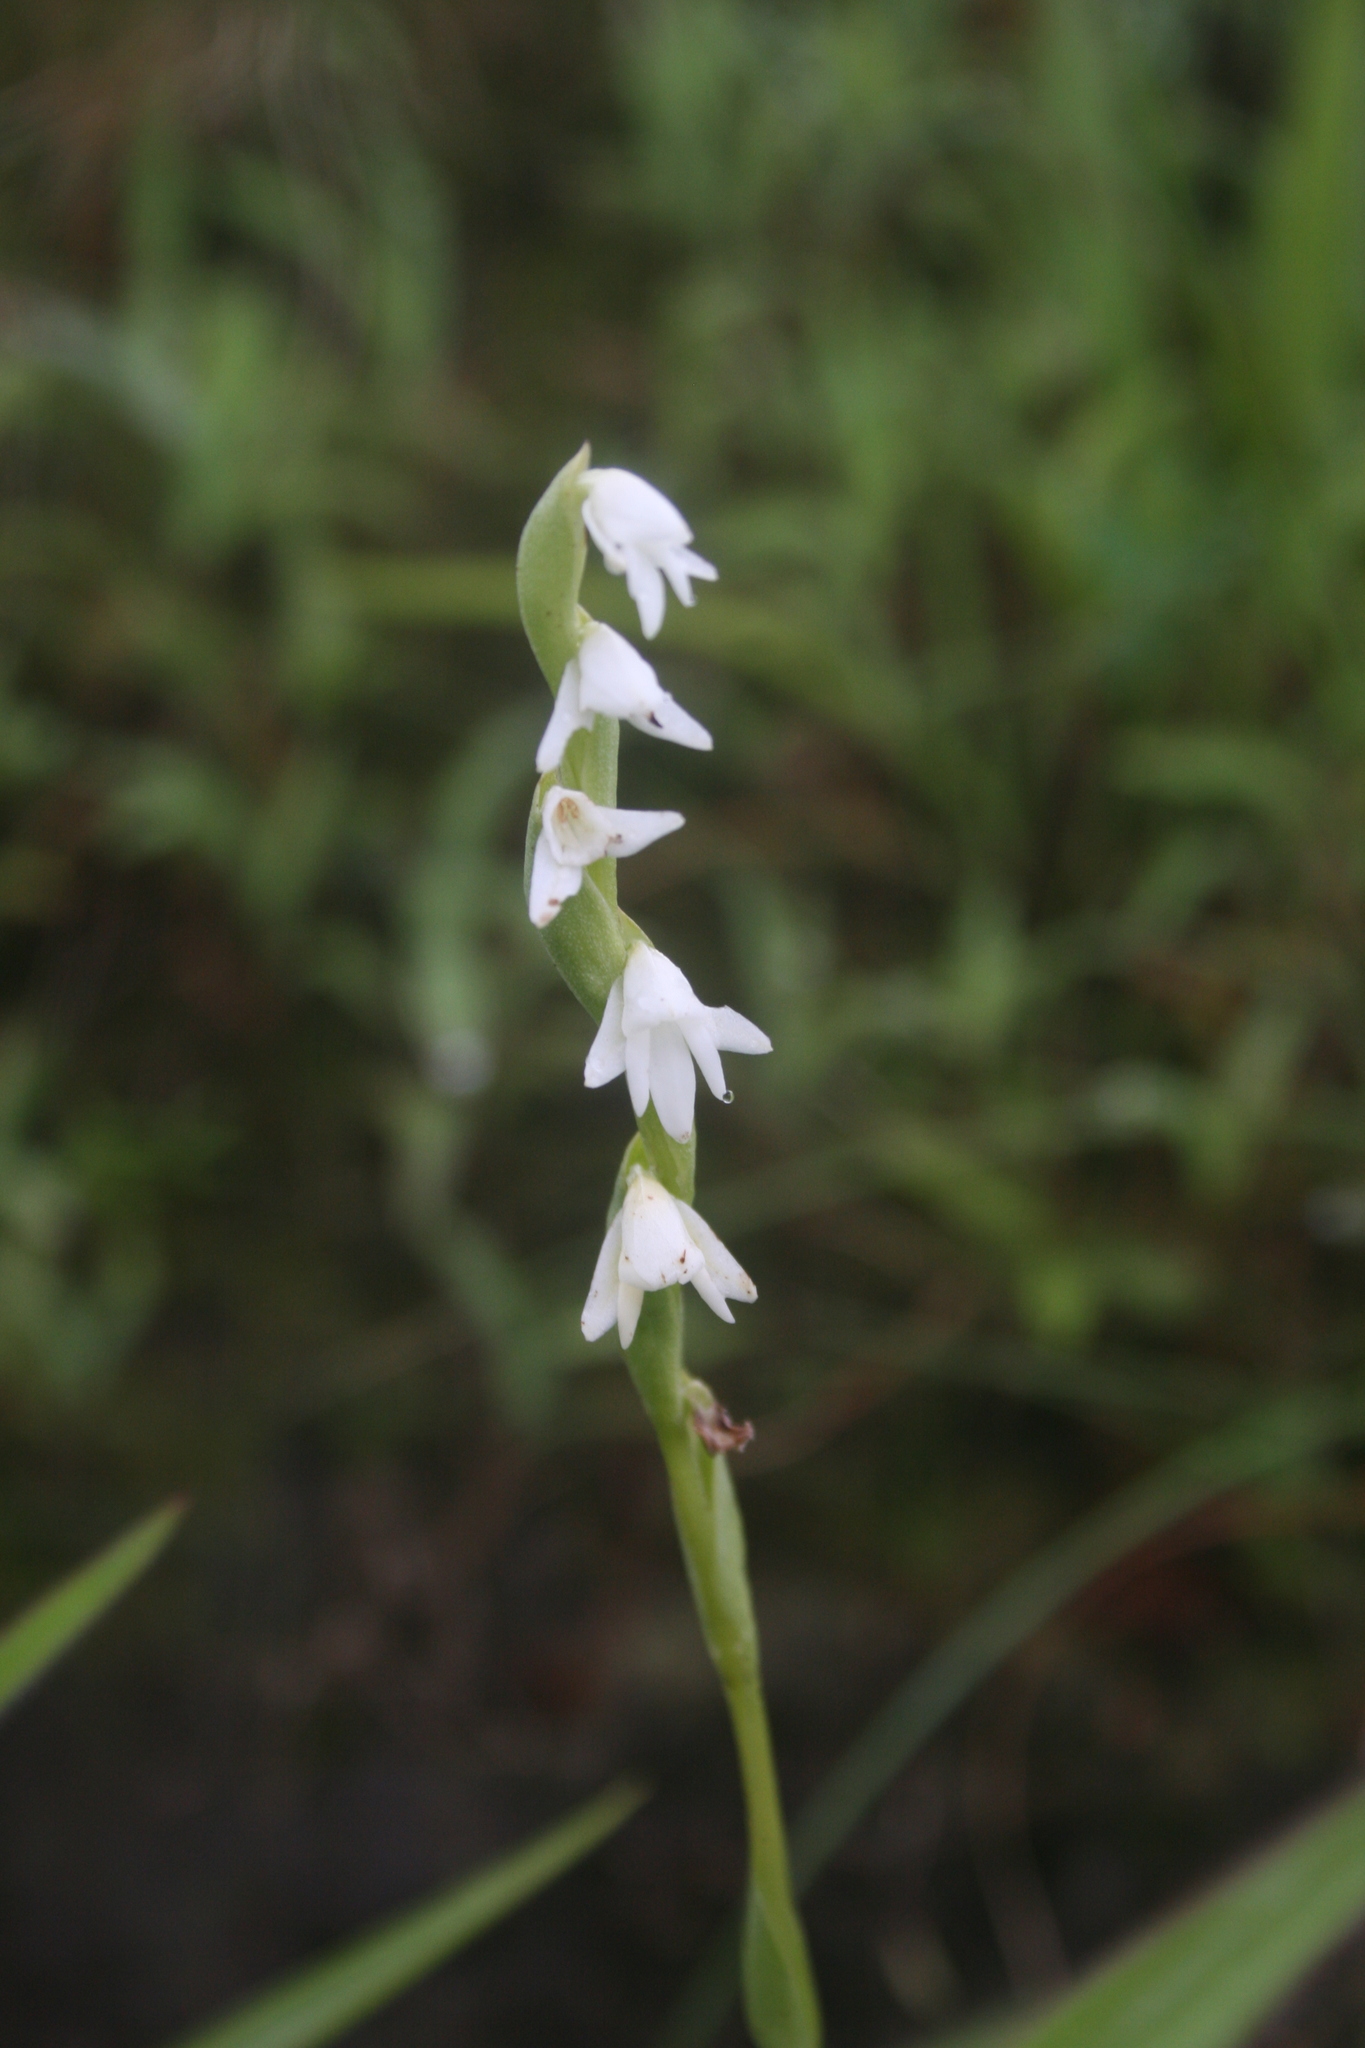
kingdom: Plantae
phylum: Tracheophyta
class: Liliopsida
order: Asparagales
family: Orchidaceae
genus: Habenaria
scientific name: Habenaria heyneana
